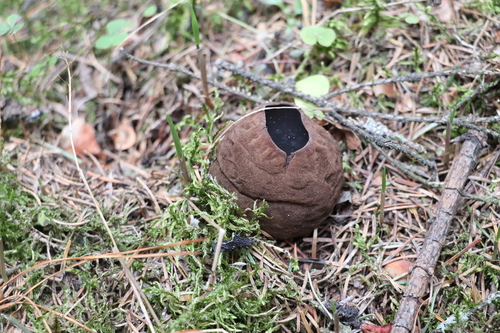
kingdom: Fungi
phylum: Ascomycota
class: Pezizomycetes
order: Pezizales
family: Sarcosomataceae
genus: Sarcosoma
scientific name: Sarcosoma globosum
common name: Charred-pancake cup
